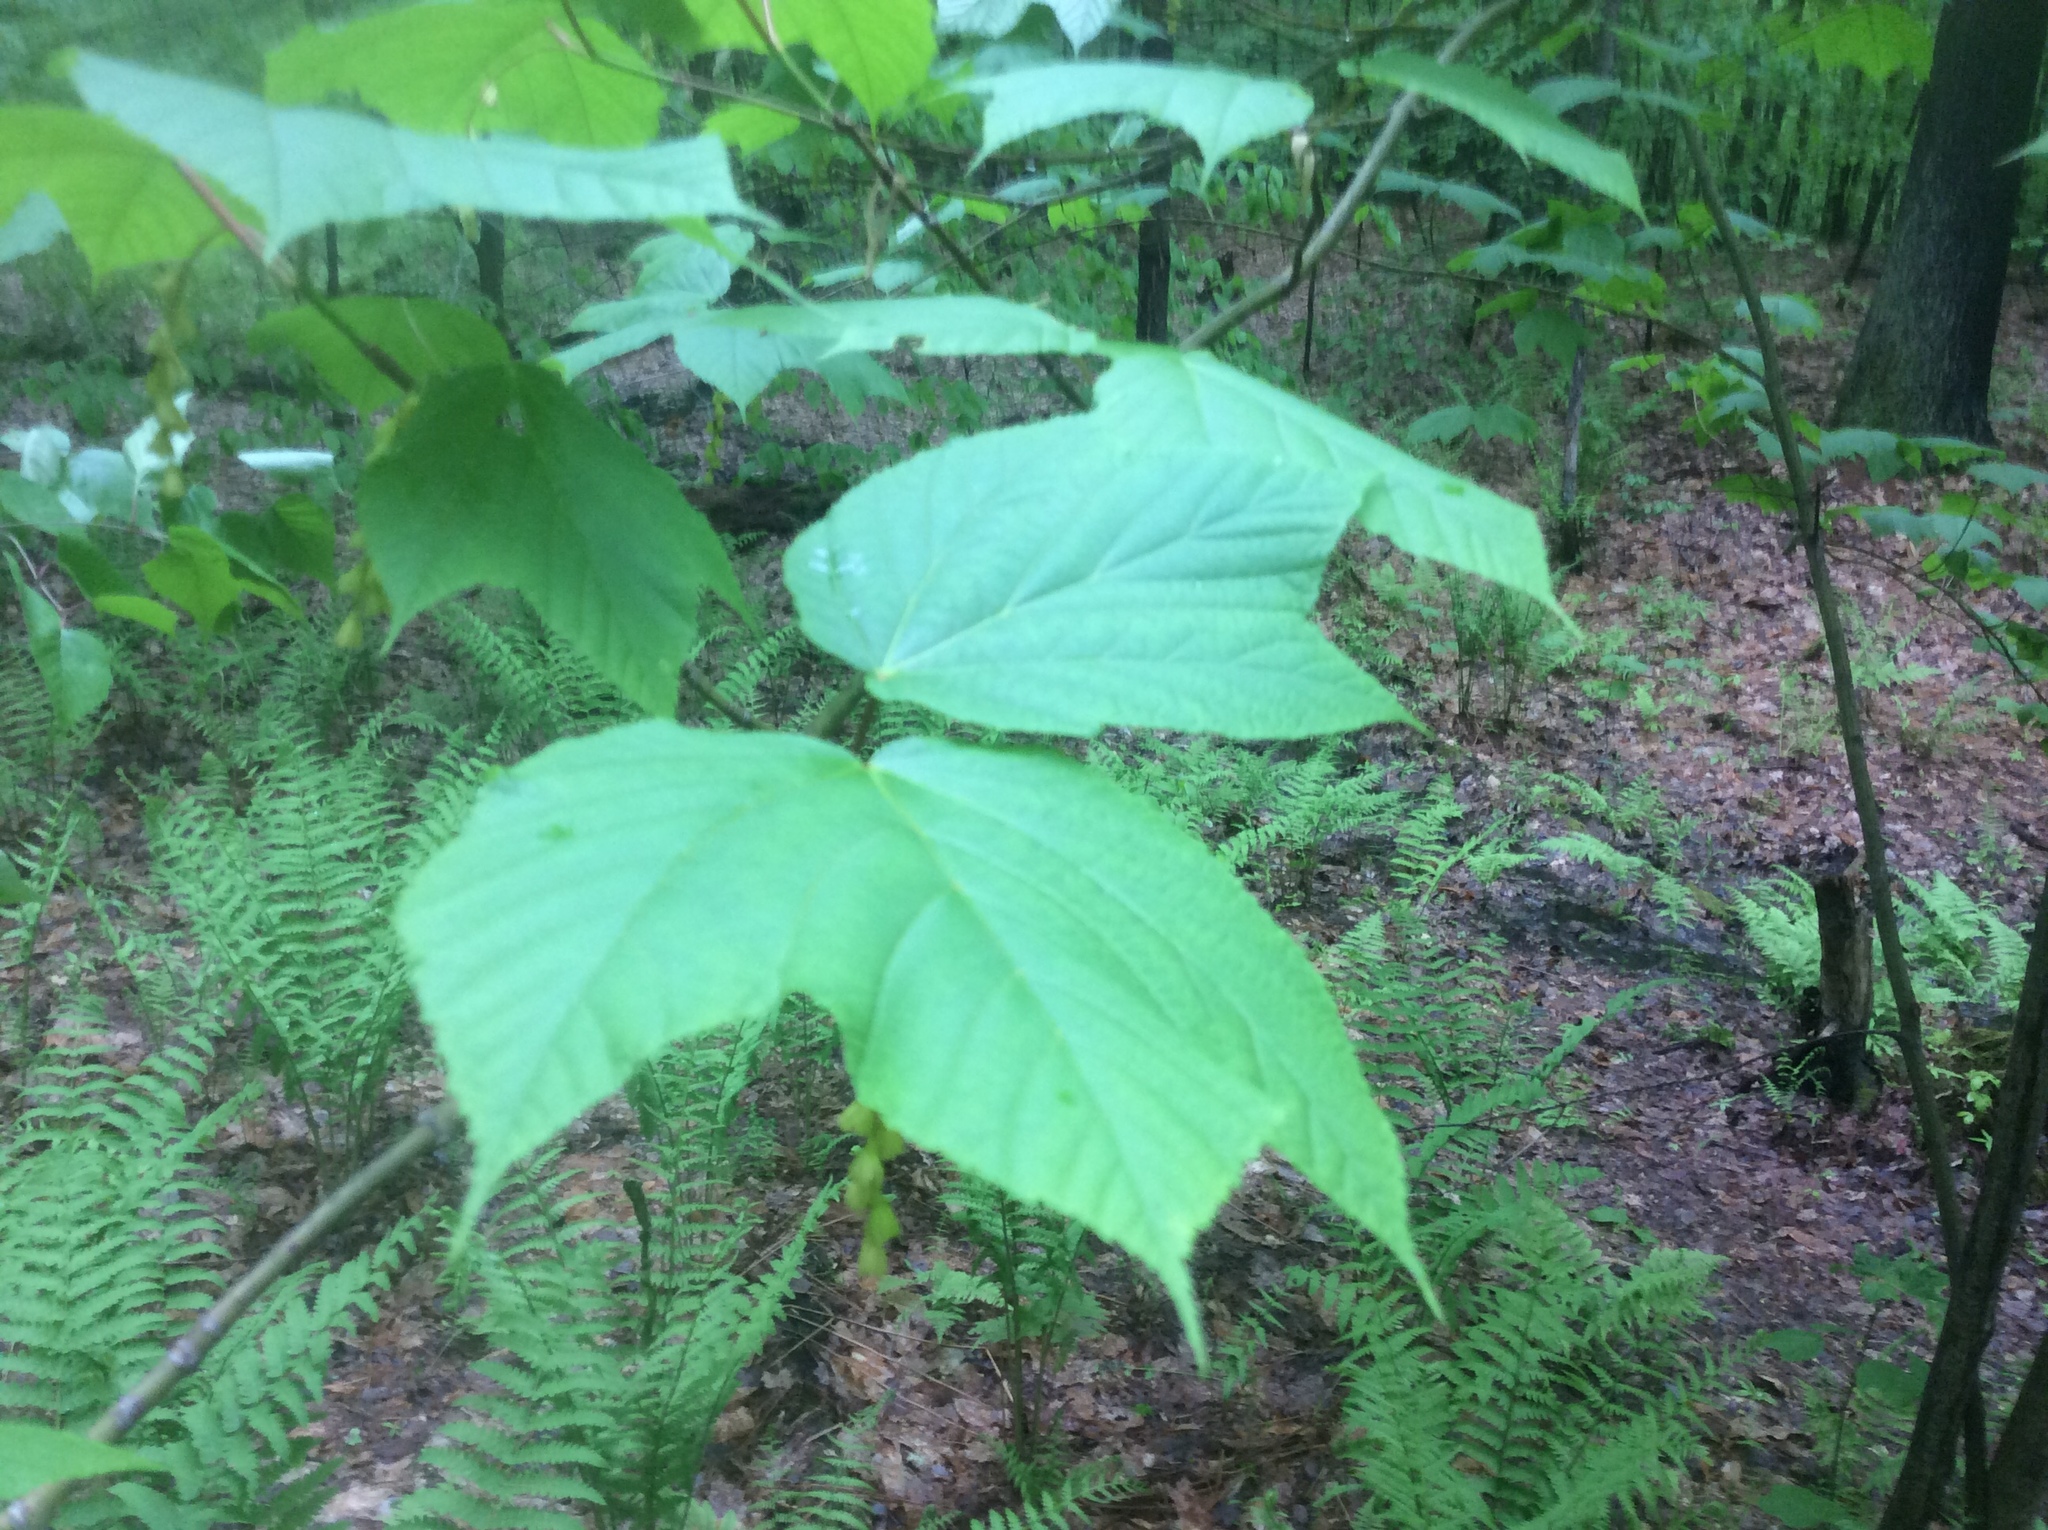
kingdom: Plantae
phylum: Tracheophyta
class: Magnoliopsida
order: Sapindales
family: Sapindaceae
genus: Acer
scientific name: Acer pensylvanicum
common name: Moosewood
